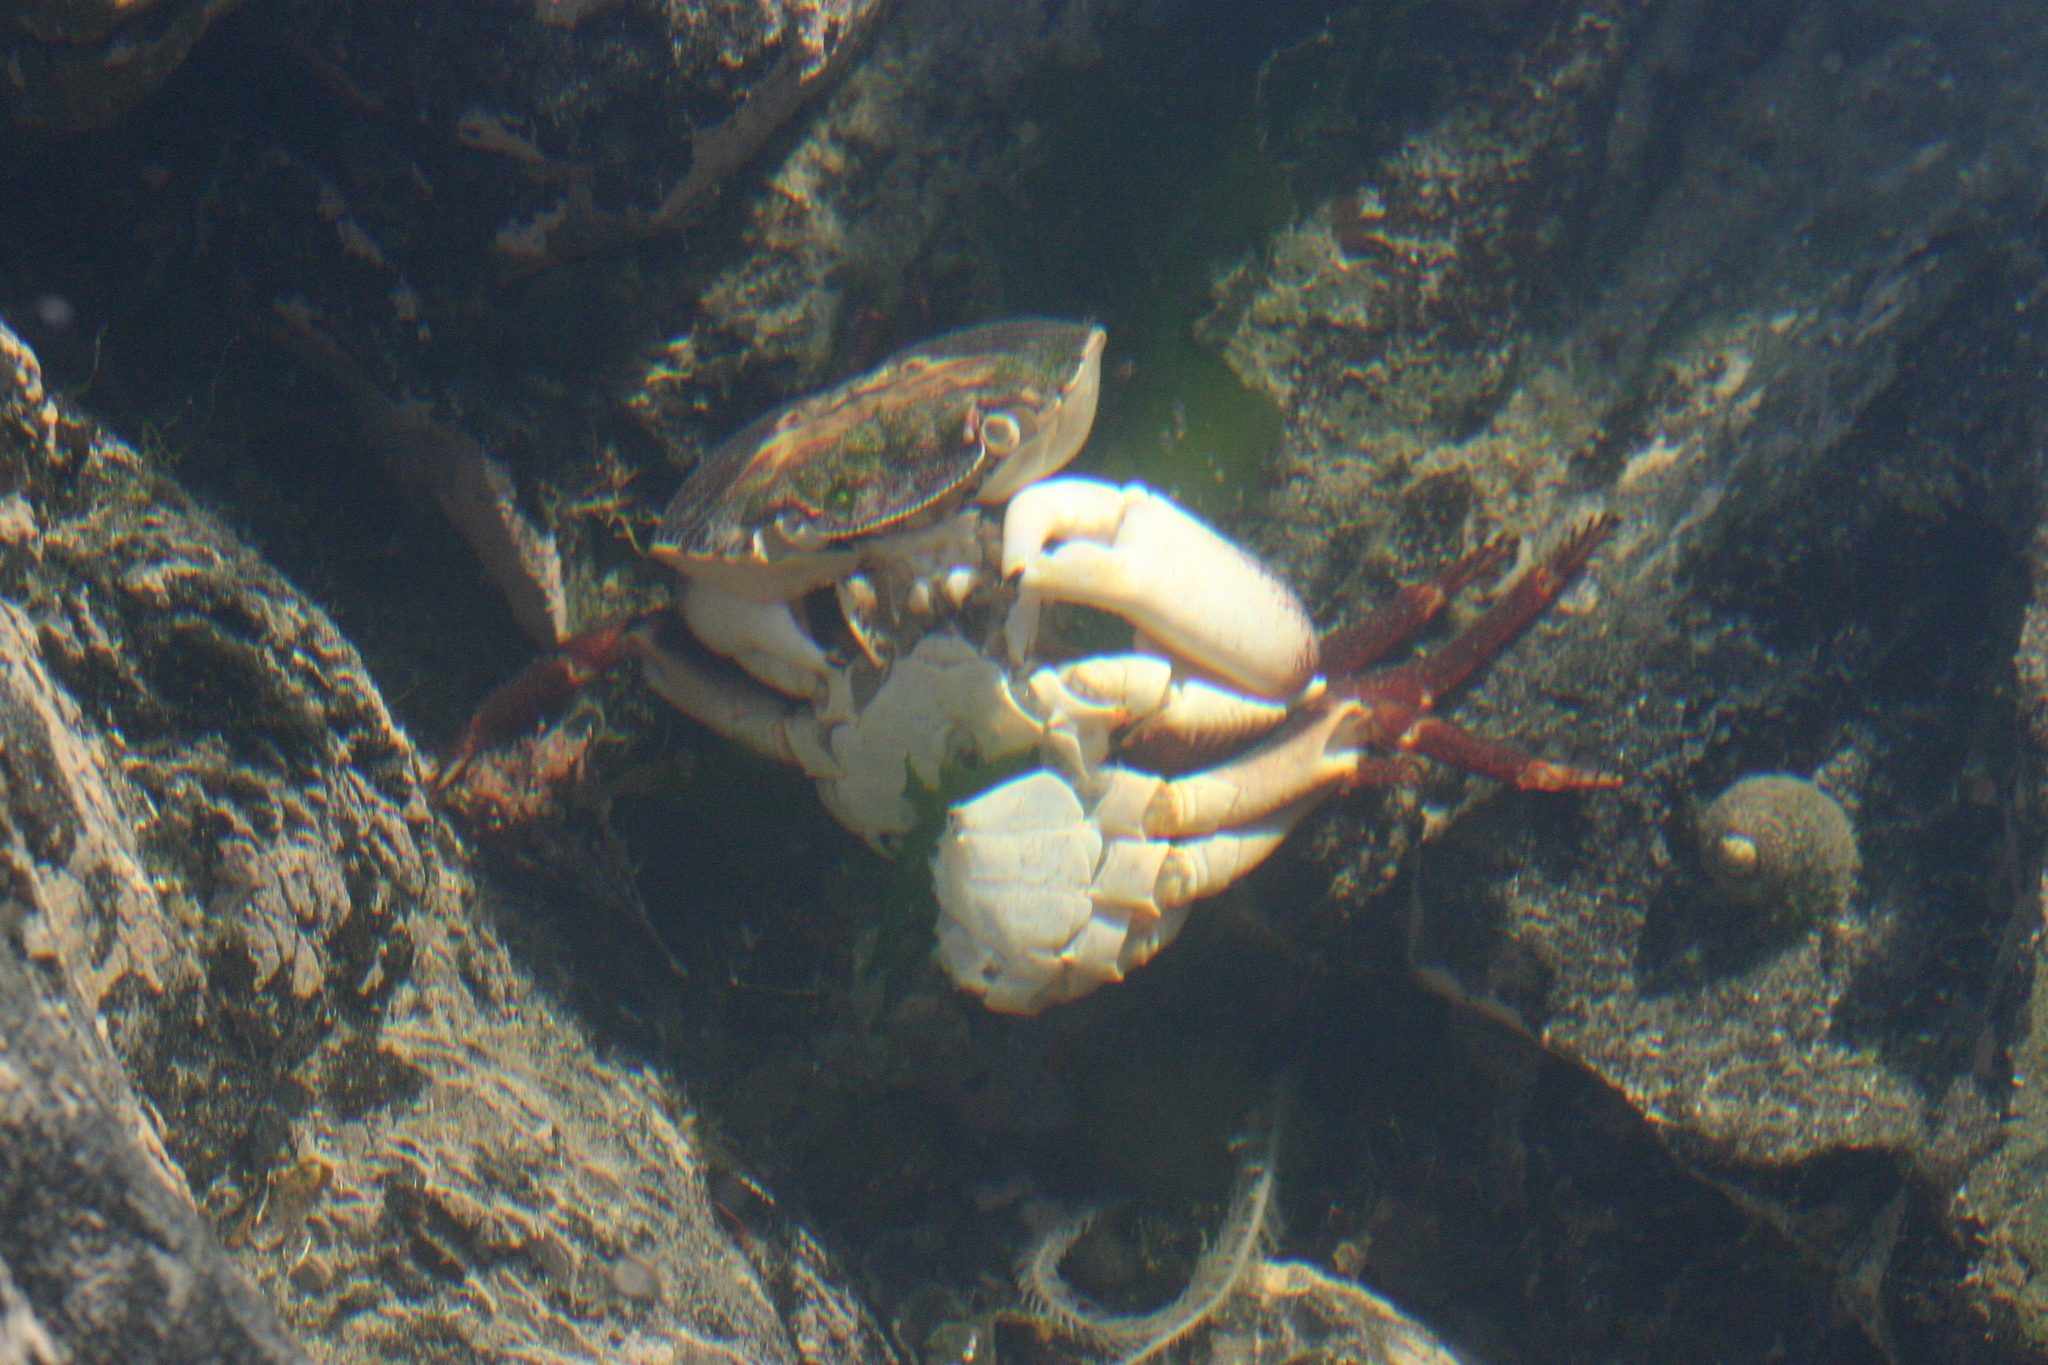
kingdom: Animalia
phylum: Arthropoda
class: Malacostraca
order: Decapoda
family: Grapsidae
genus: Leptograpsus
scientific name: Leptograpsus variegatus
